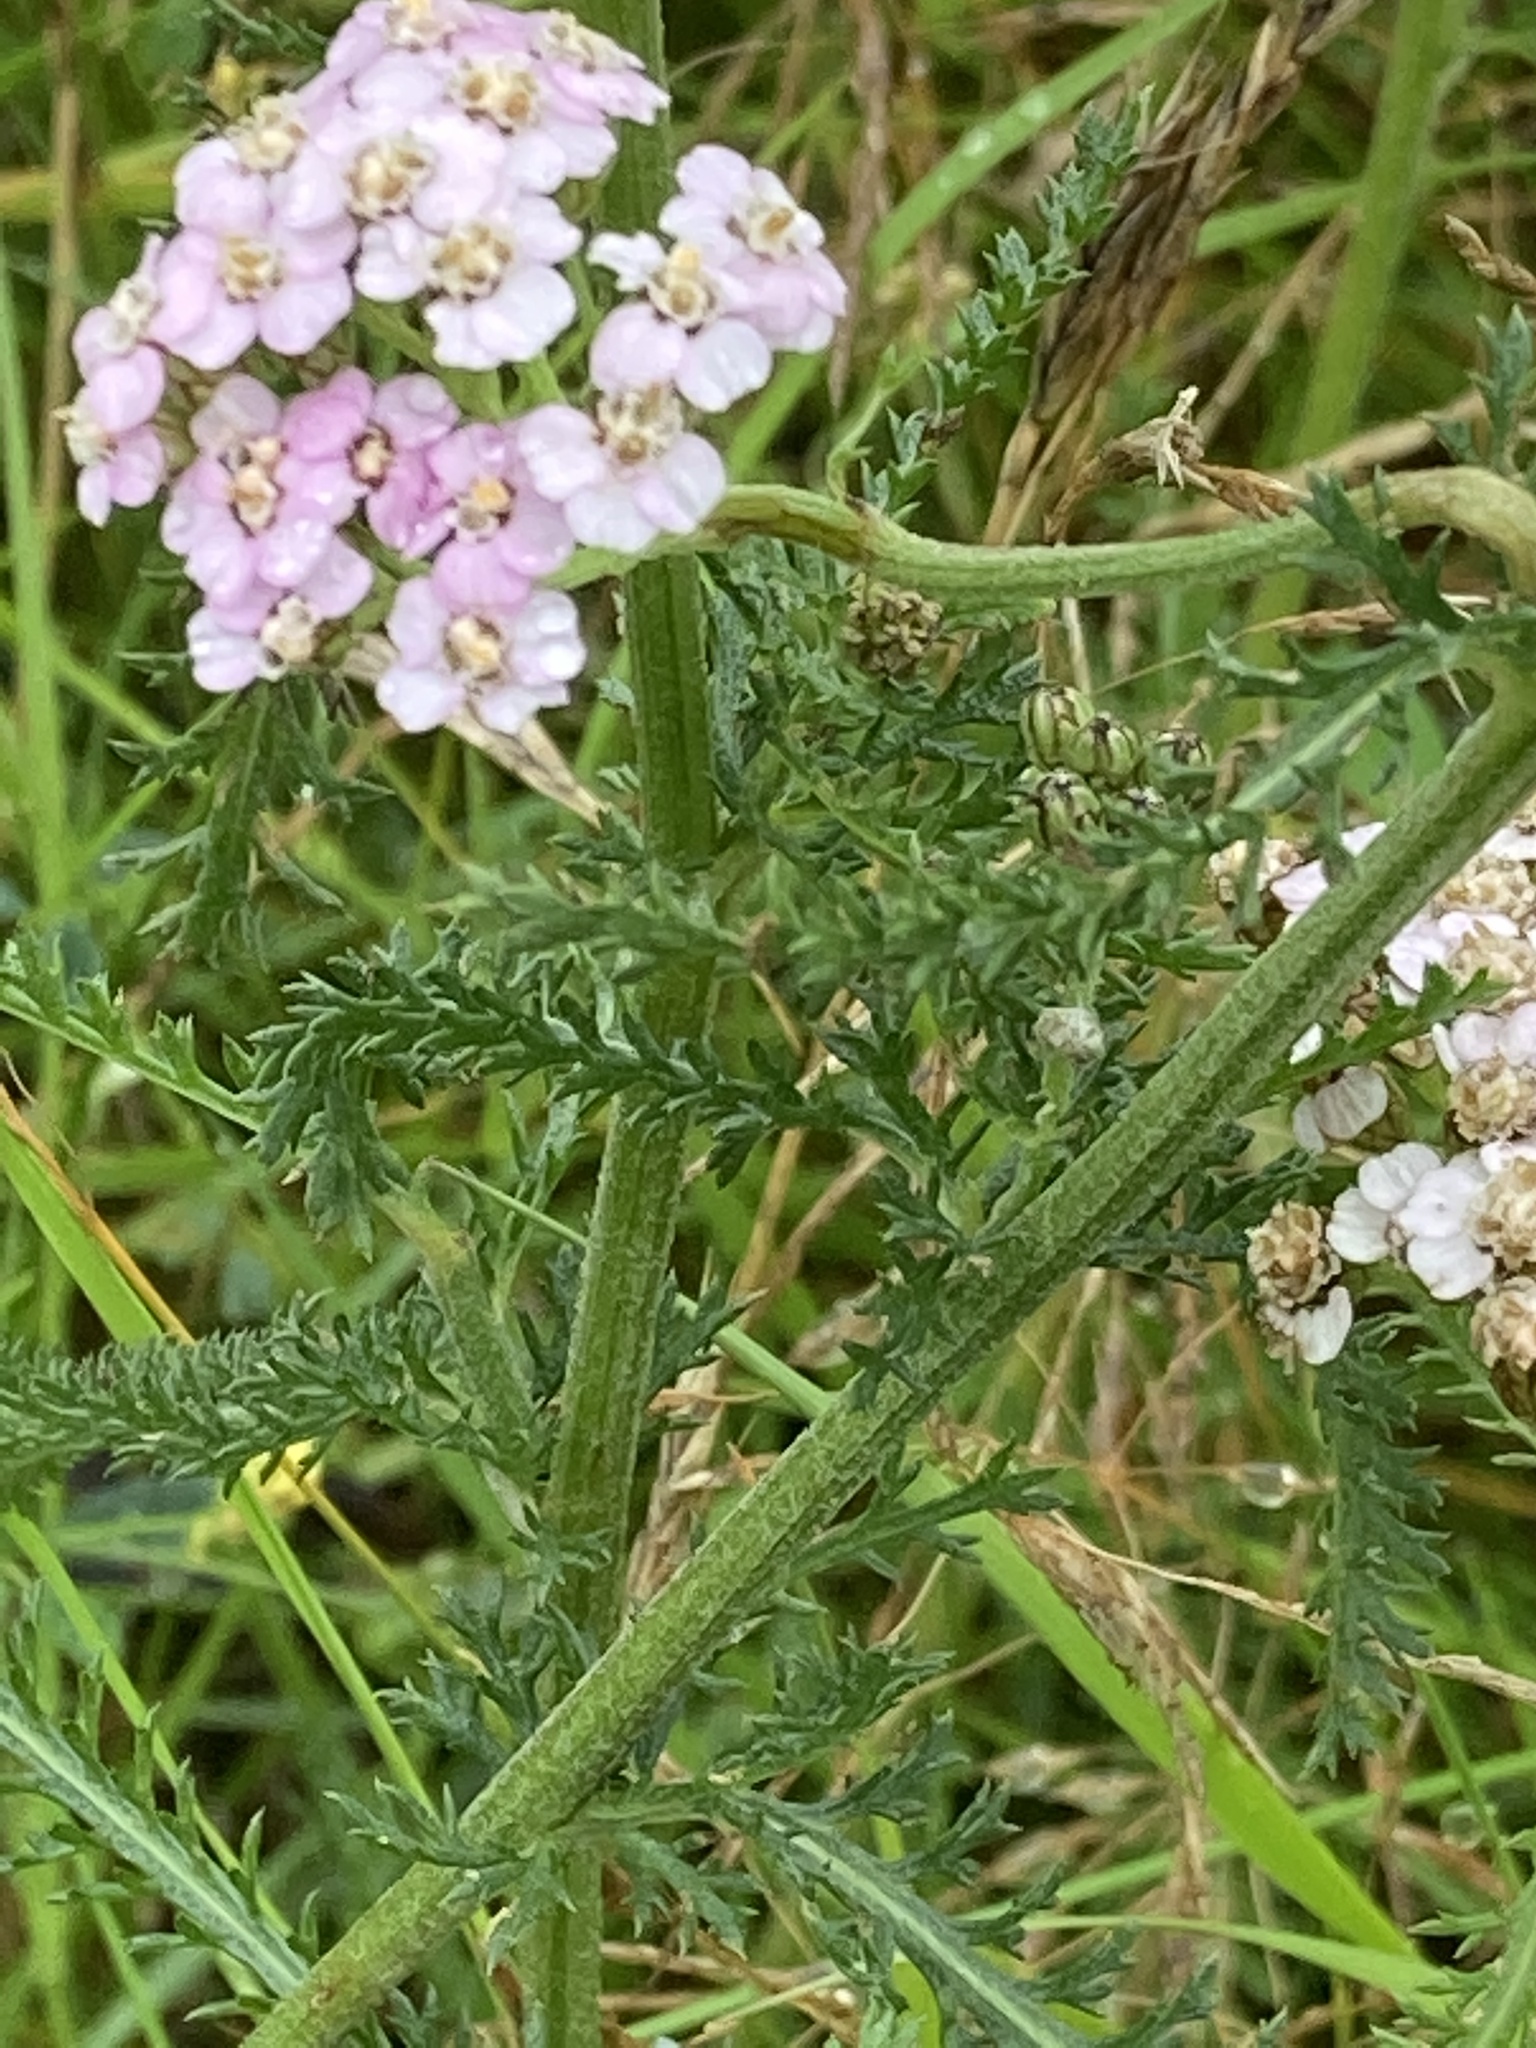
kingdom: Plantae
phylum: Tracheophyta
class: Magnoliopsida
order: Asterales
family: Asteraceae
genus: Achillea
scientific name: Achillea millefolium
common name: Yarrow
